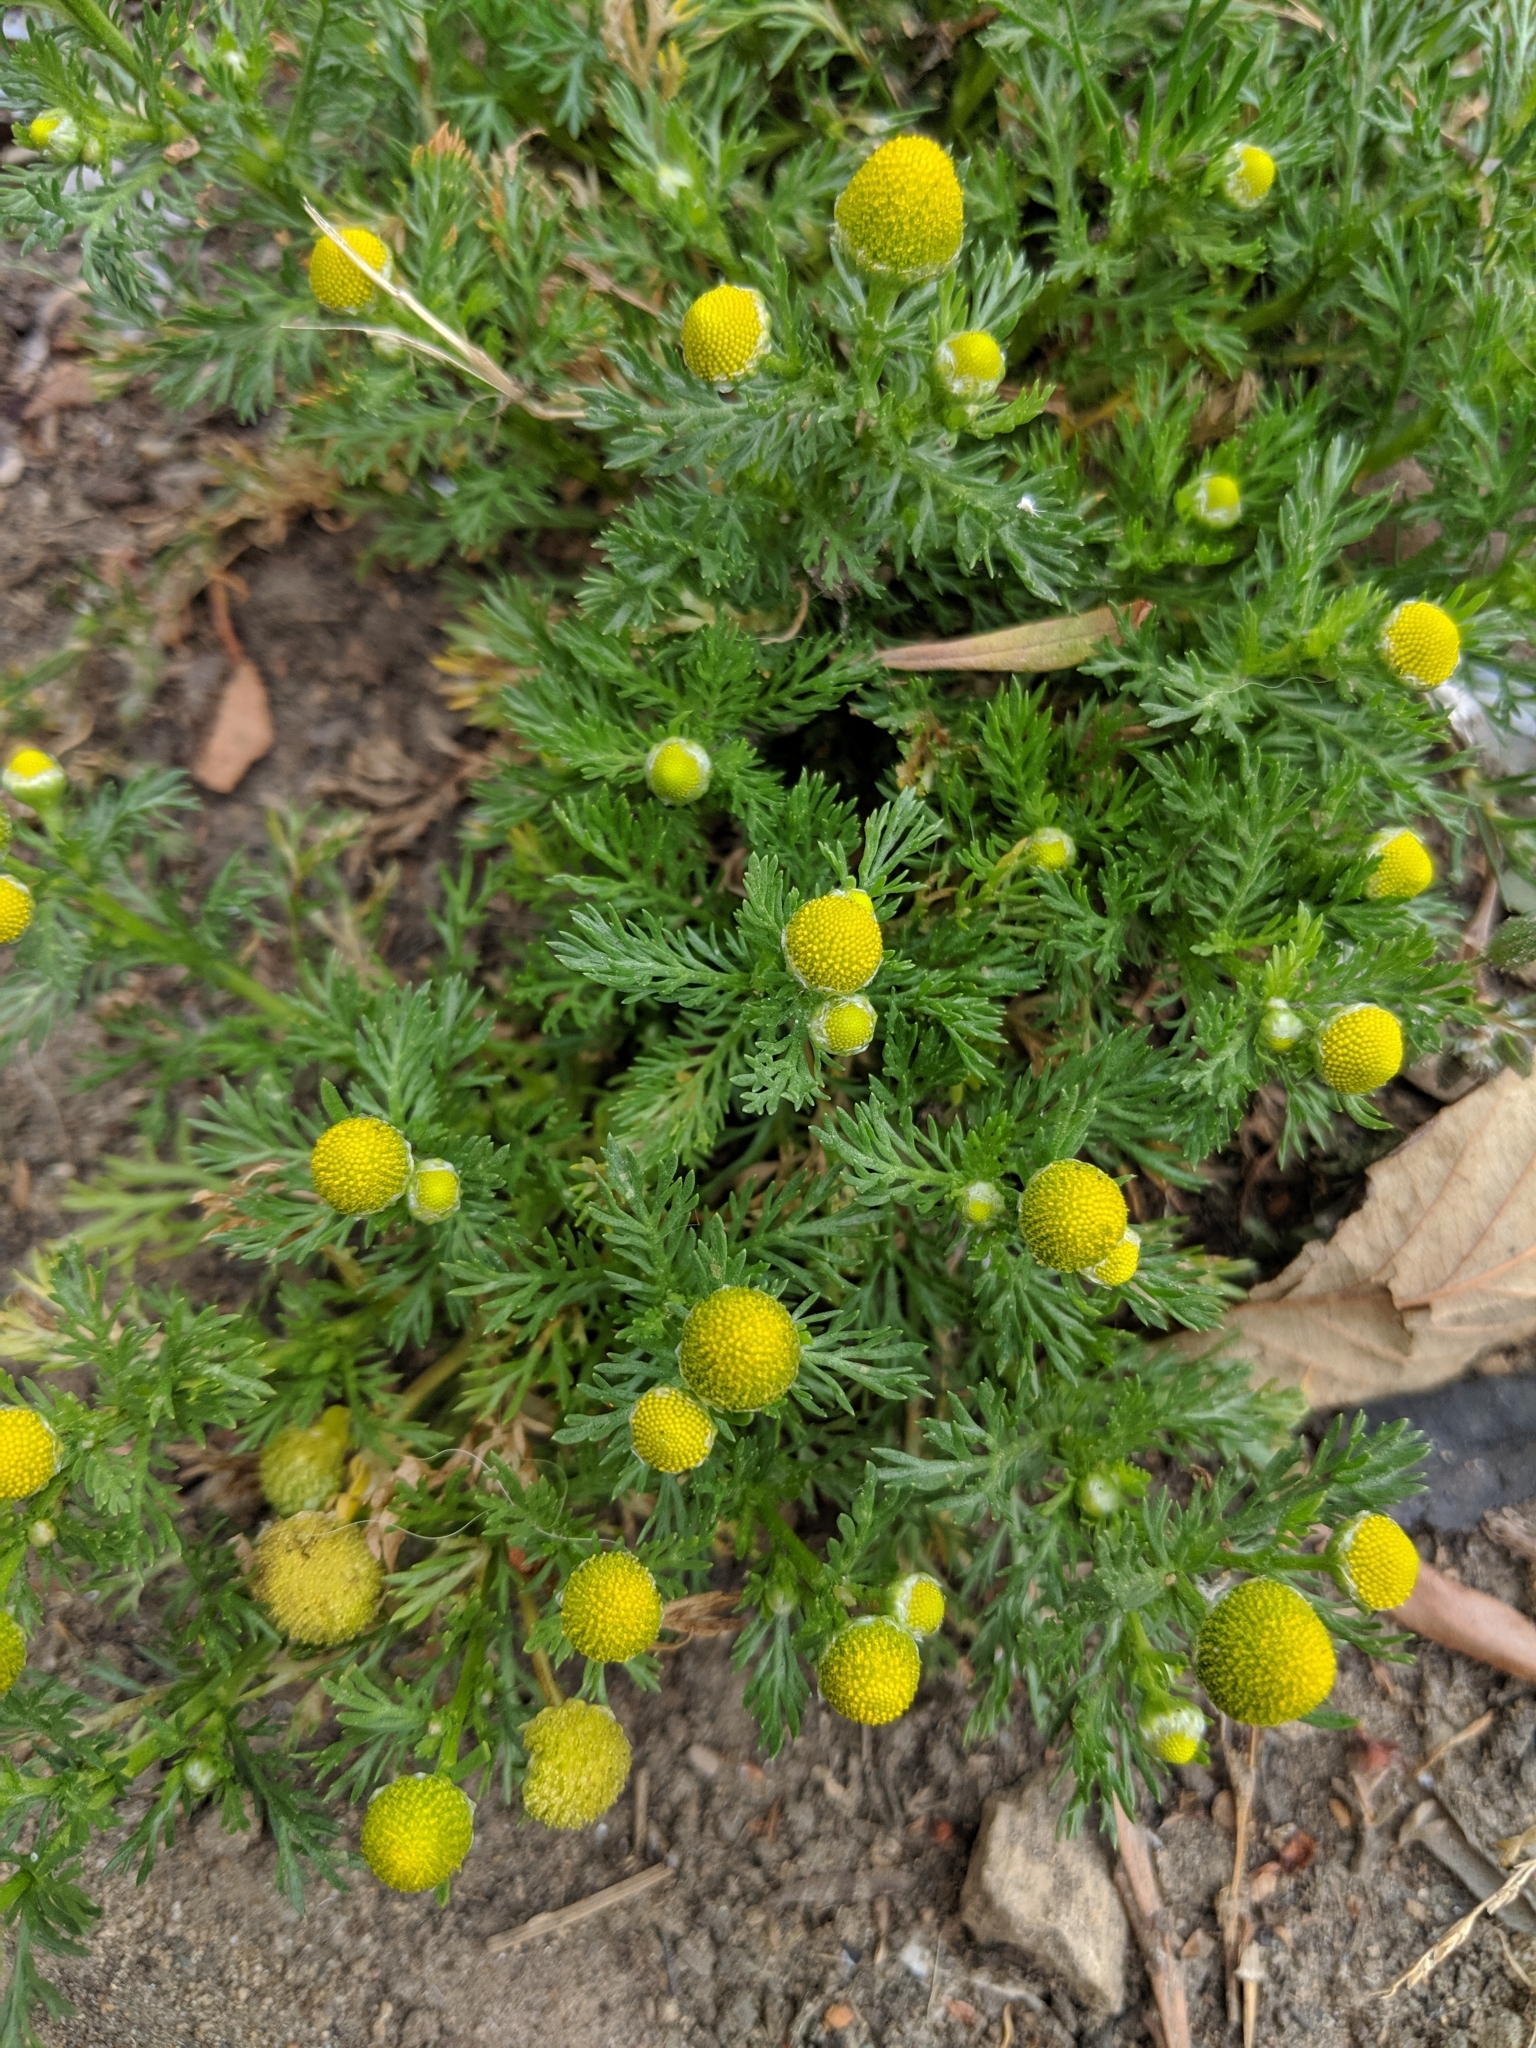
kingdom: Plantae
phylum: Tracheophyta
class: Magnoliopsida
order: Asterales
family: Asteraceae
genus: Matricaria
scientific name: Matricaria discoidea
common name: Disc mayweed
